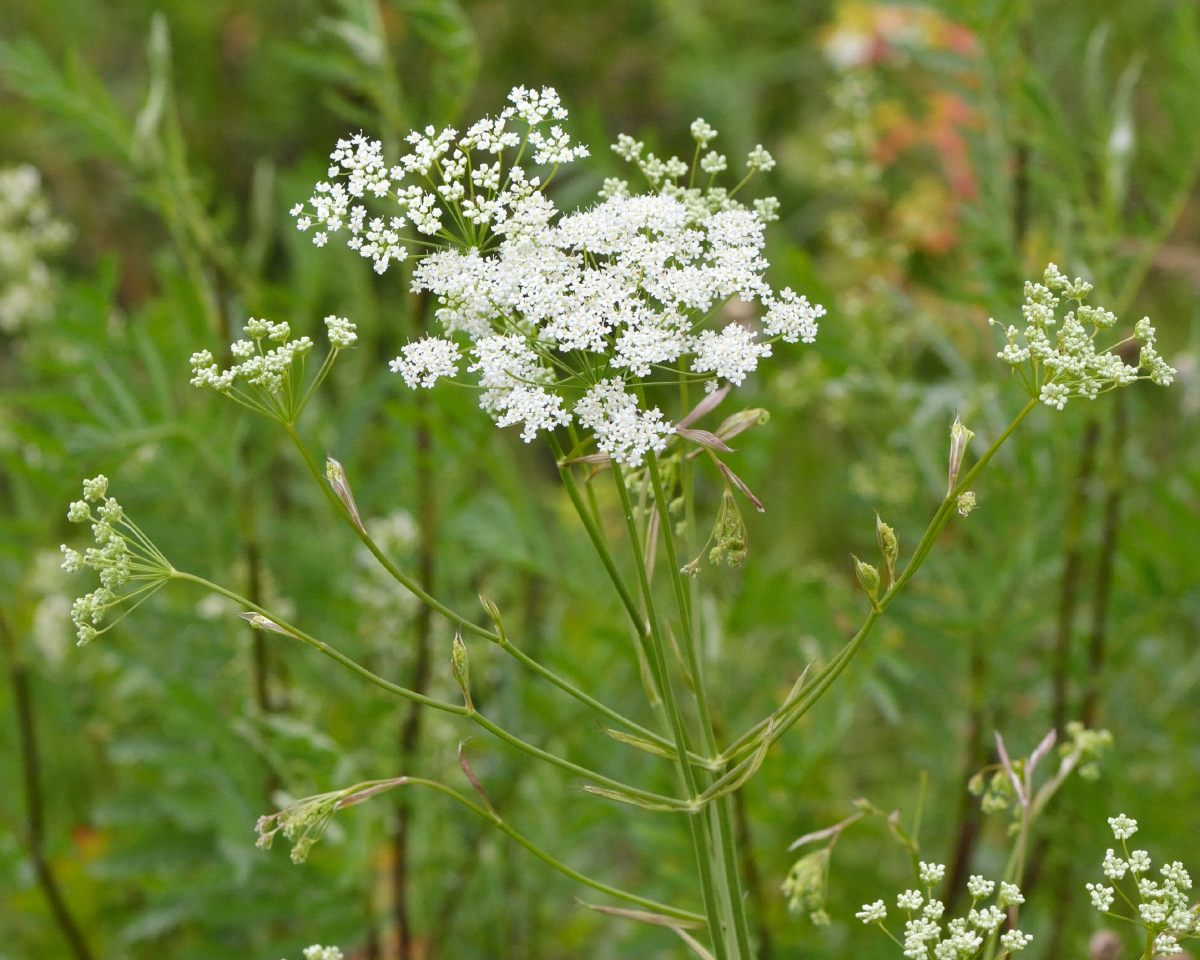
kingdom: Plantae
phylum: Tracheophyta
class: Magnoliopsida
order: Apiales
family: Apiaceae
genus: Pimpinella
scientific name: Pimpinella saxifraga
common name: Burnet-saxifrage
